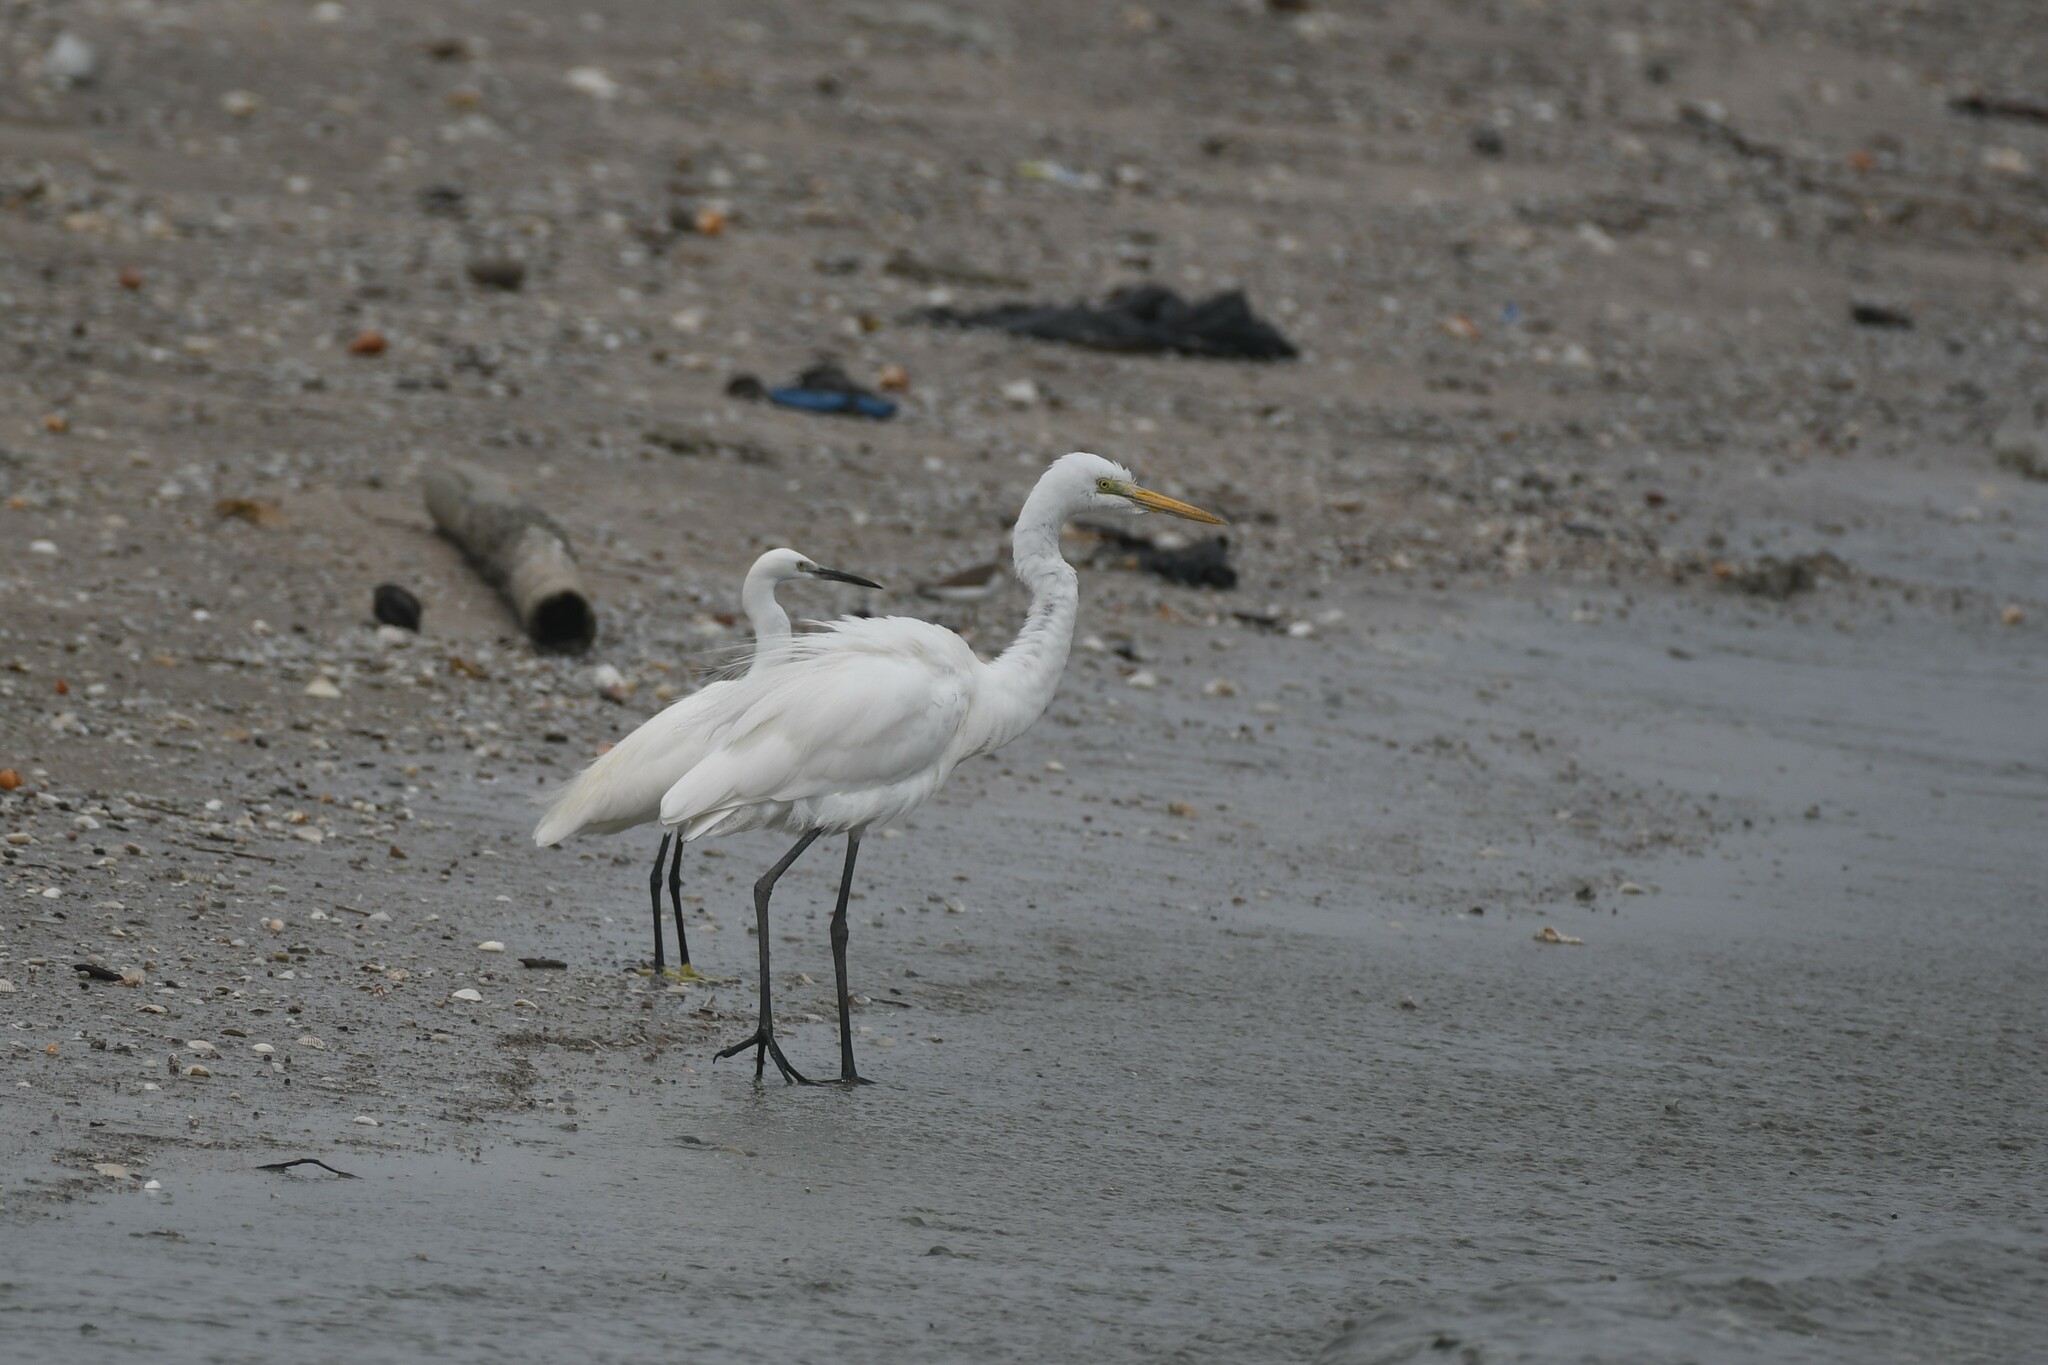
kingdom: Animalia
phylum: Chordata
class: Aves
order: Pelecaniformes
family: Ardeidae
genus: Ardea
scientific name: Ardea alba
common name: Great egret
